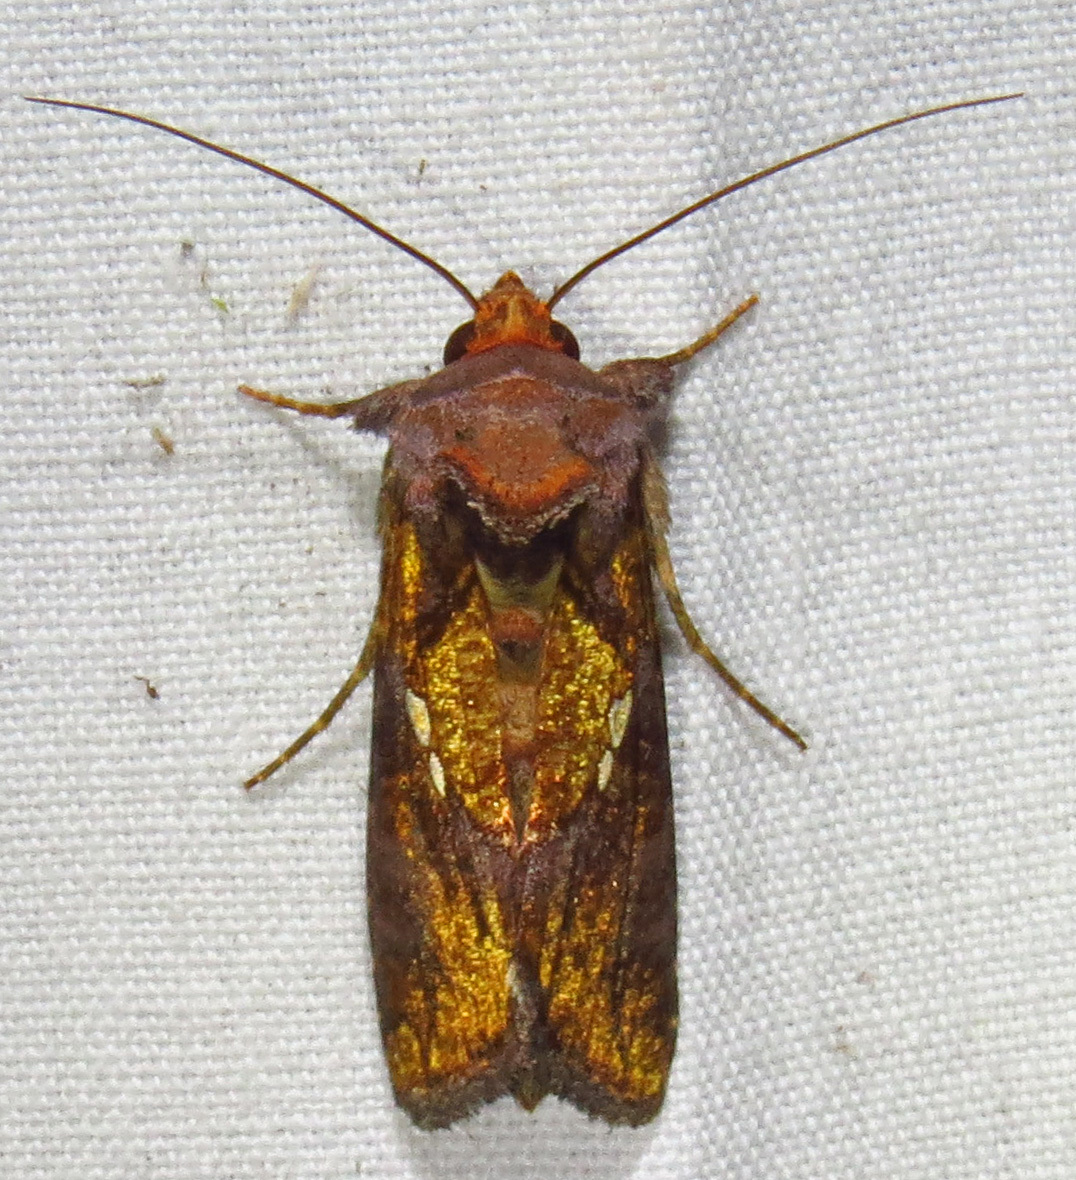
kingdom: Animalia
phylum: Arthropoda
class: Insecta
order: Lepidoptera
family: Noctuidae
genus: Argyrogramma
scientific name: Argyrogramma verruca
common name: Golden looper moth
